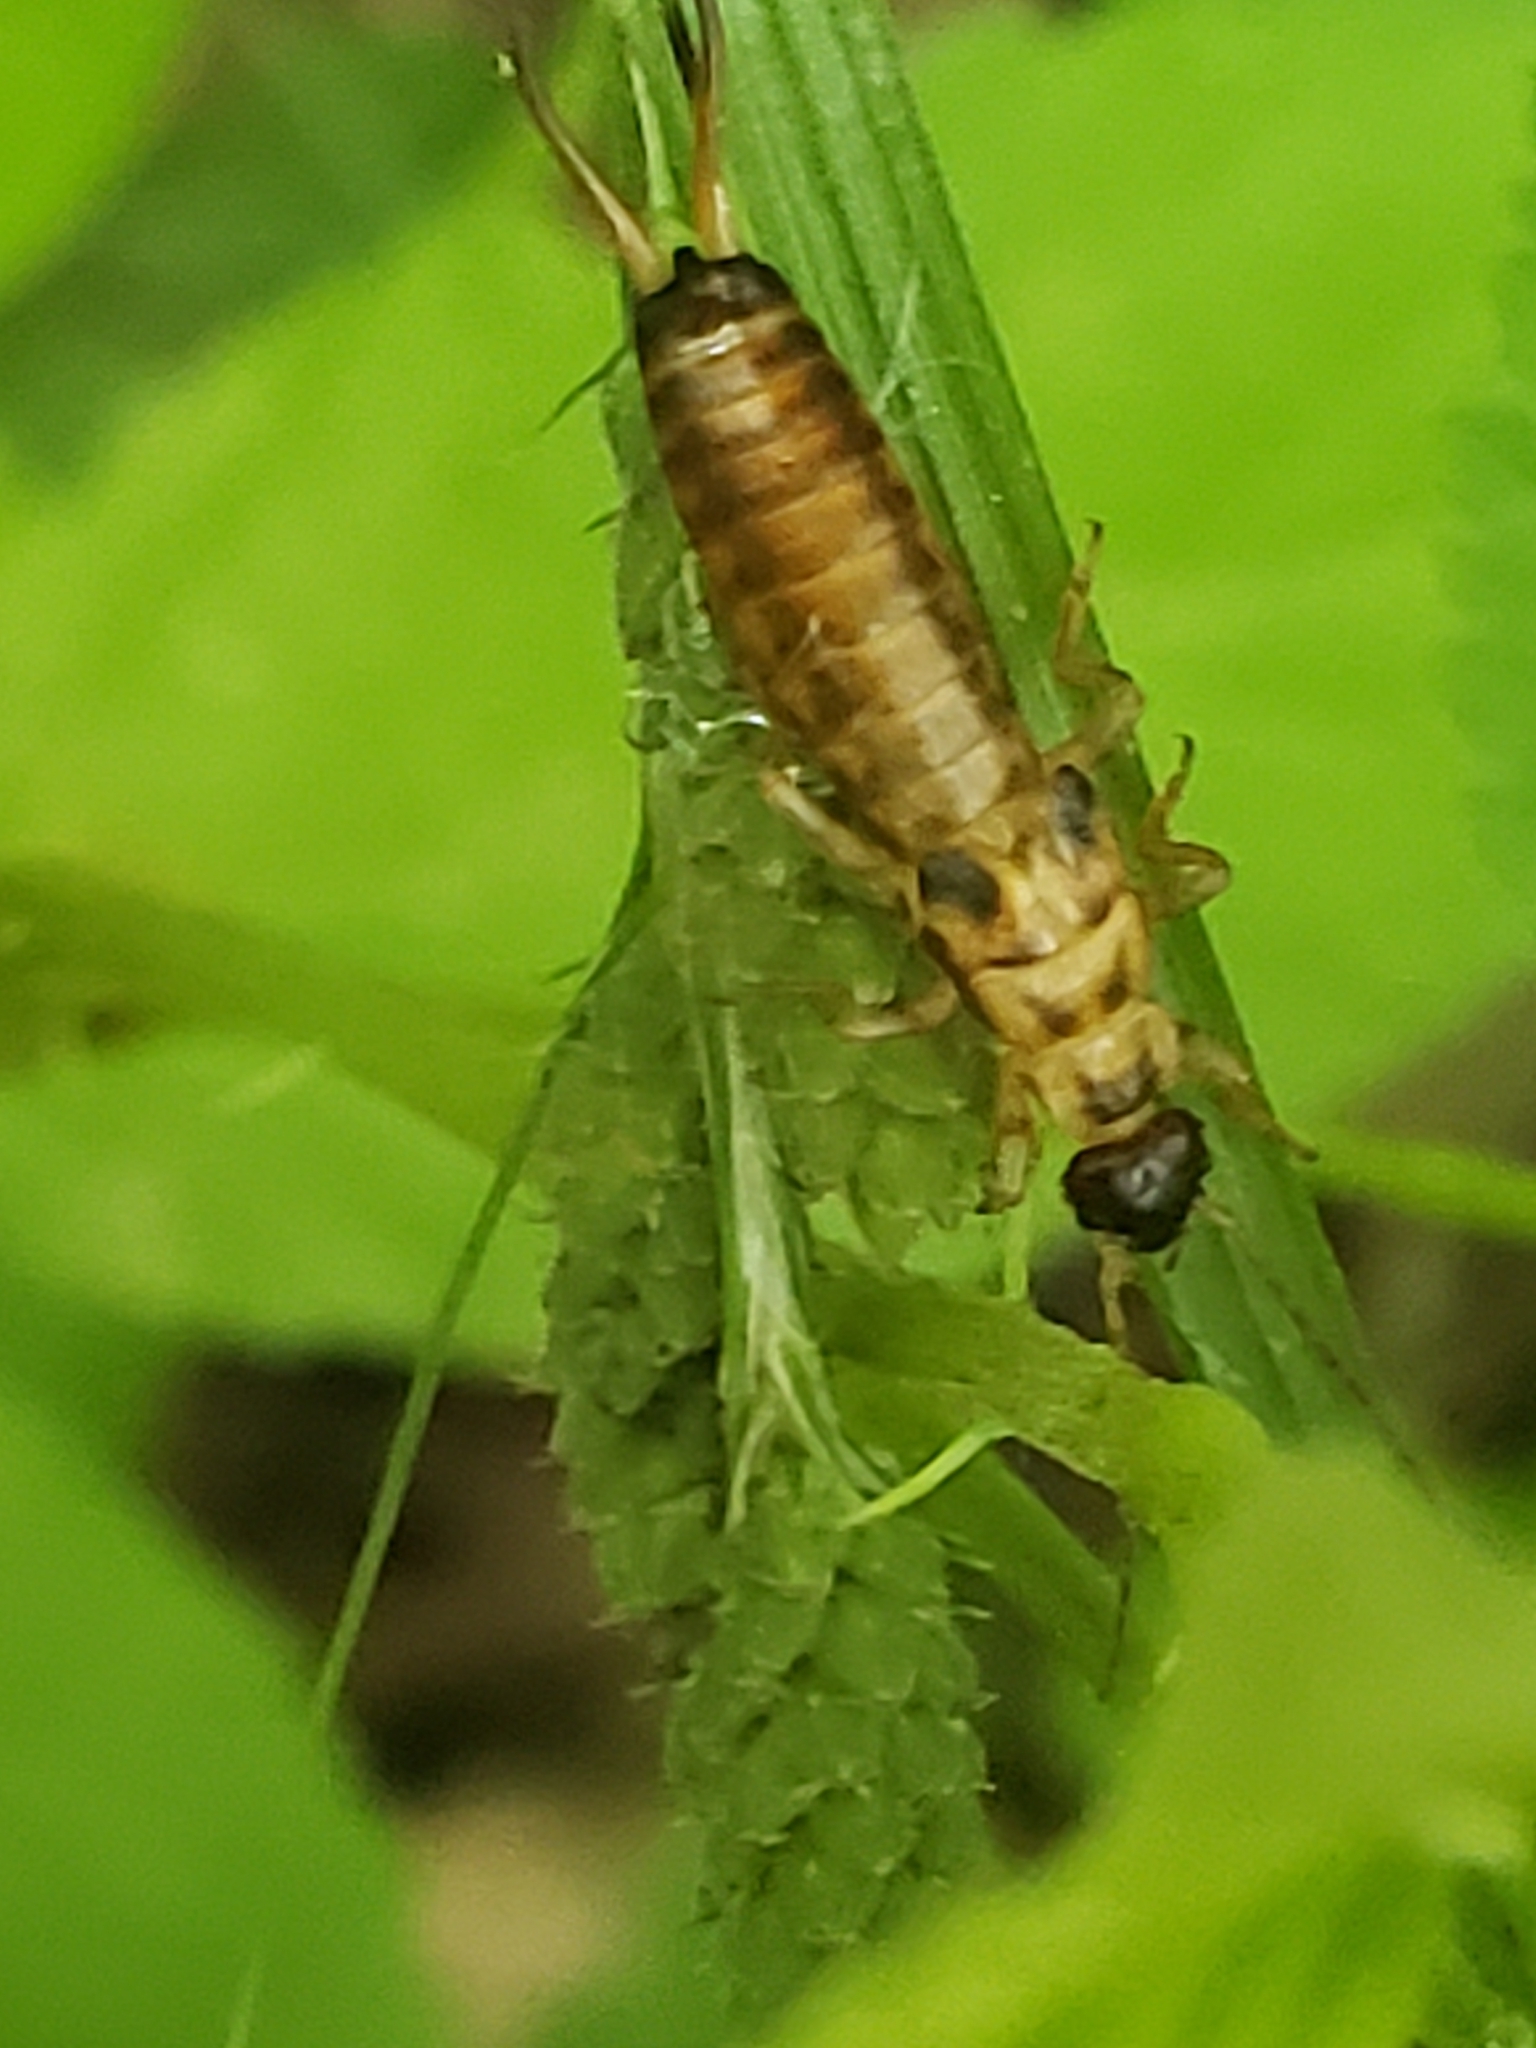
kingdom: Animalia
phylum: Arthropoda
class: Insecta
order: Dermaptera
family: Forficulidae
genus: Forficula
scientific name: Forficula
